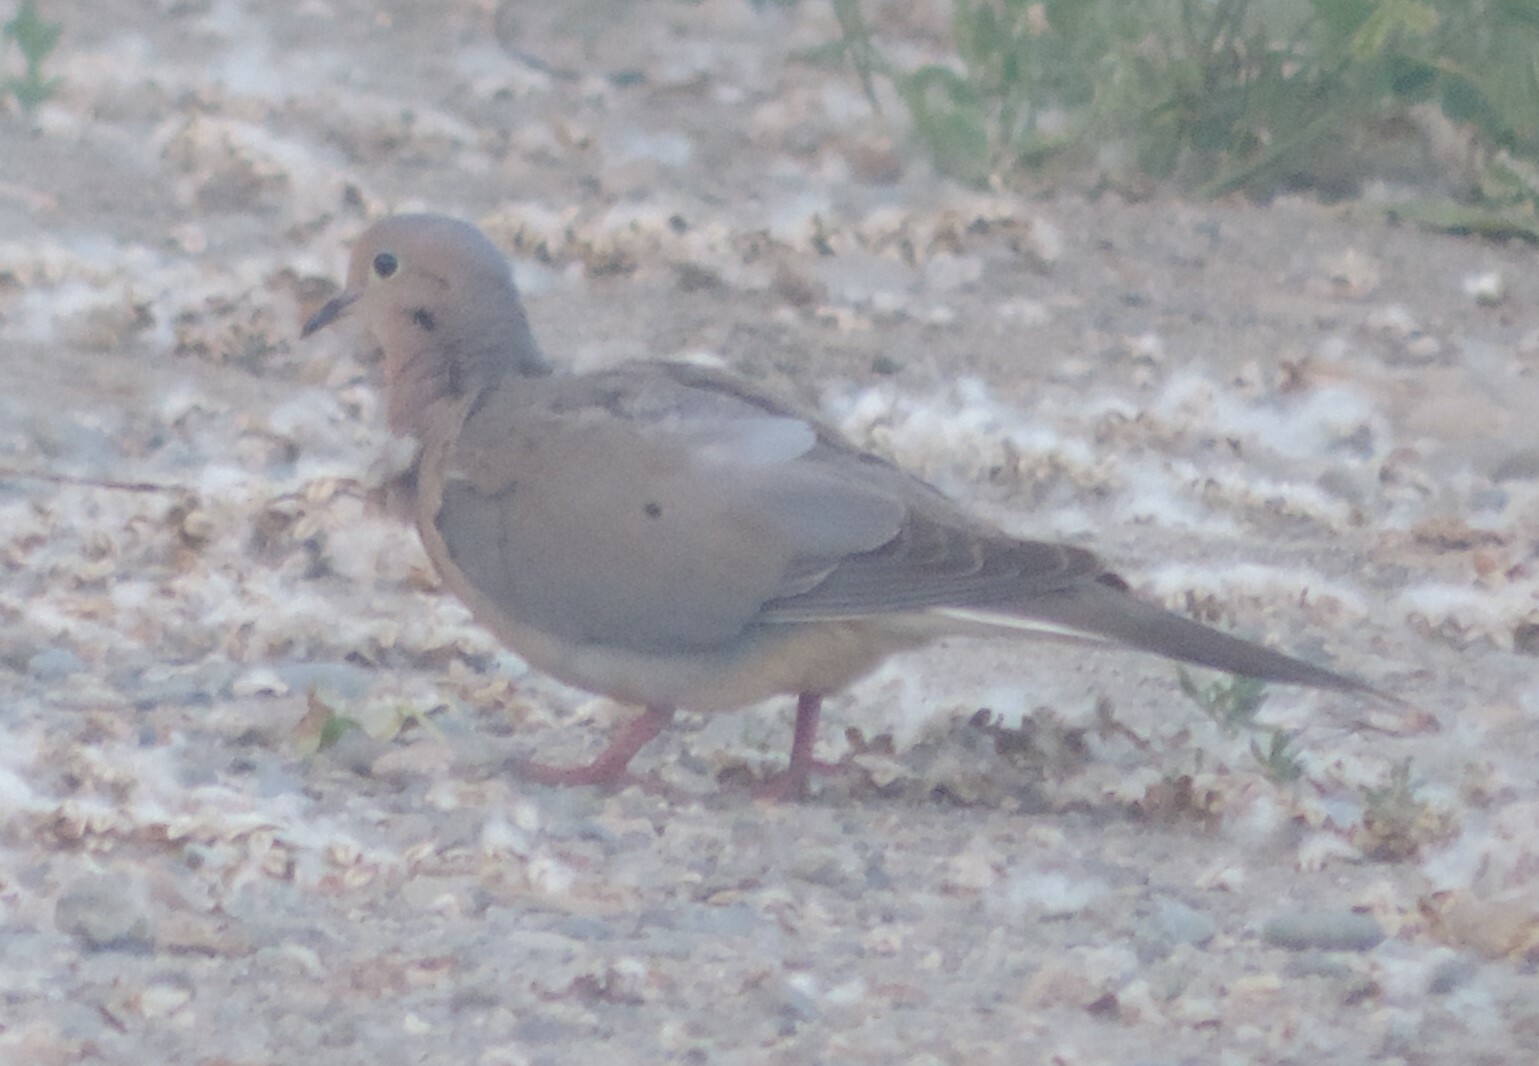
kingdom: Animalia
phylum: Chordata
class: Aves
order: Columbiformes
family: Columbidae
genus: Zenaida
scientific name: Zenaida macroura
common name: Mourning dove
